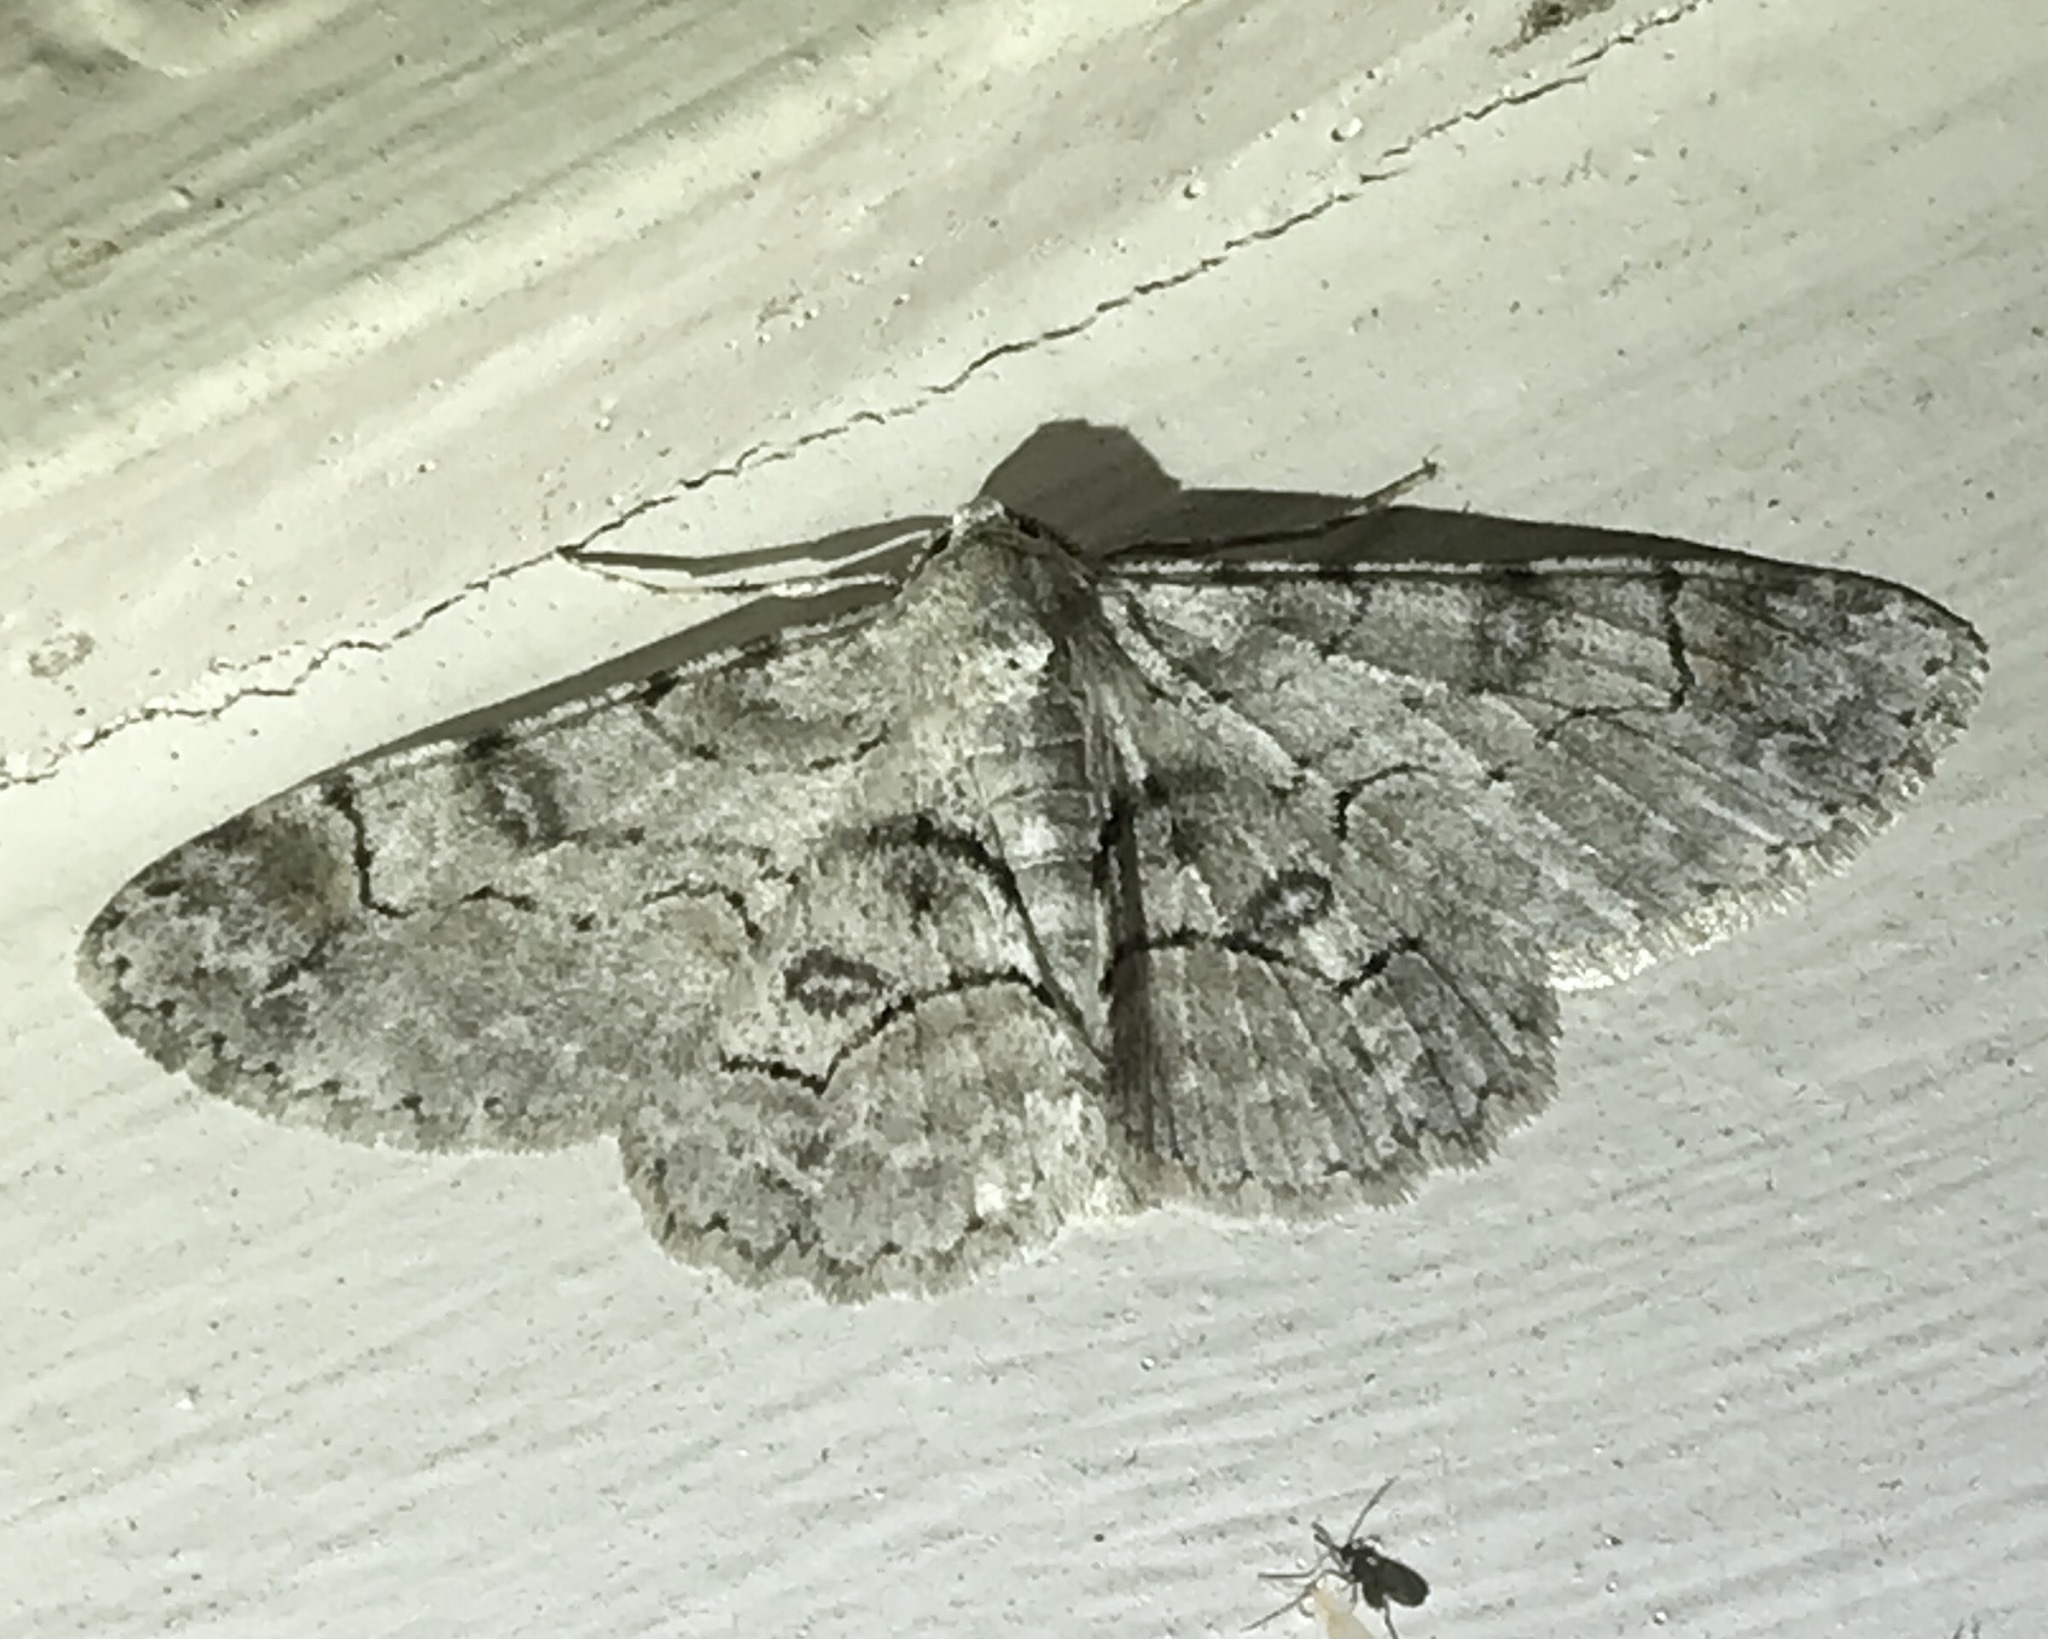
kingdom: Animalia
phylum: Arthropoda
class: Insecta
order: Lepidoptera
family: Geometridae
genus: Iridopsis
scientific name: Iridopsis larvaria
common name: Bent-line gray
